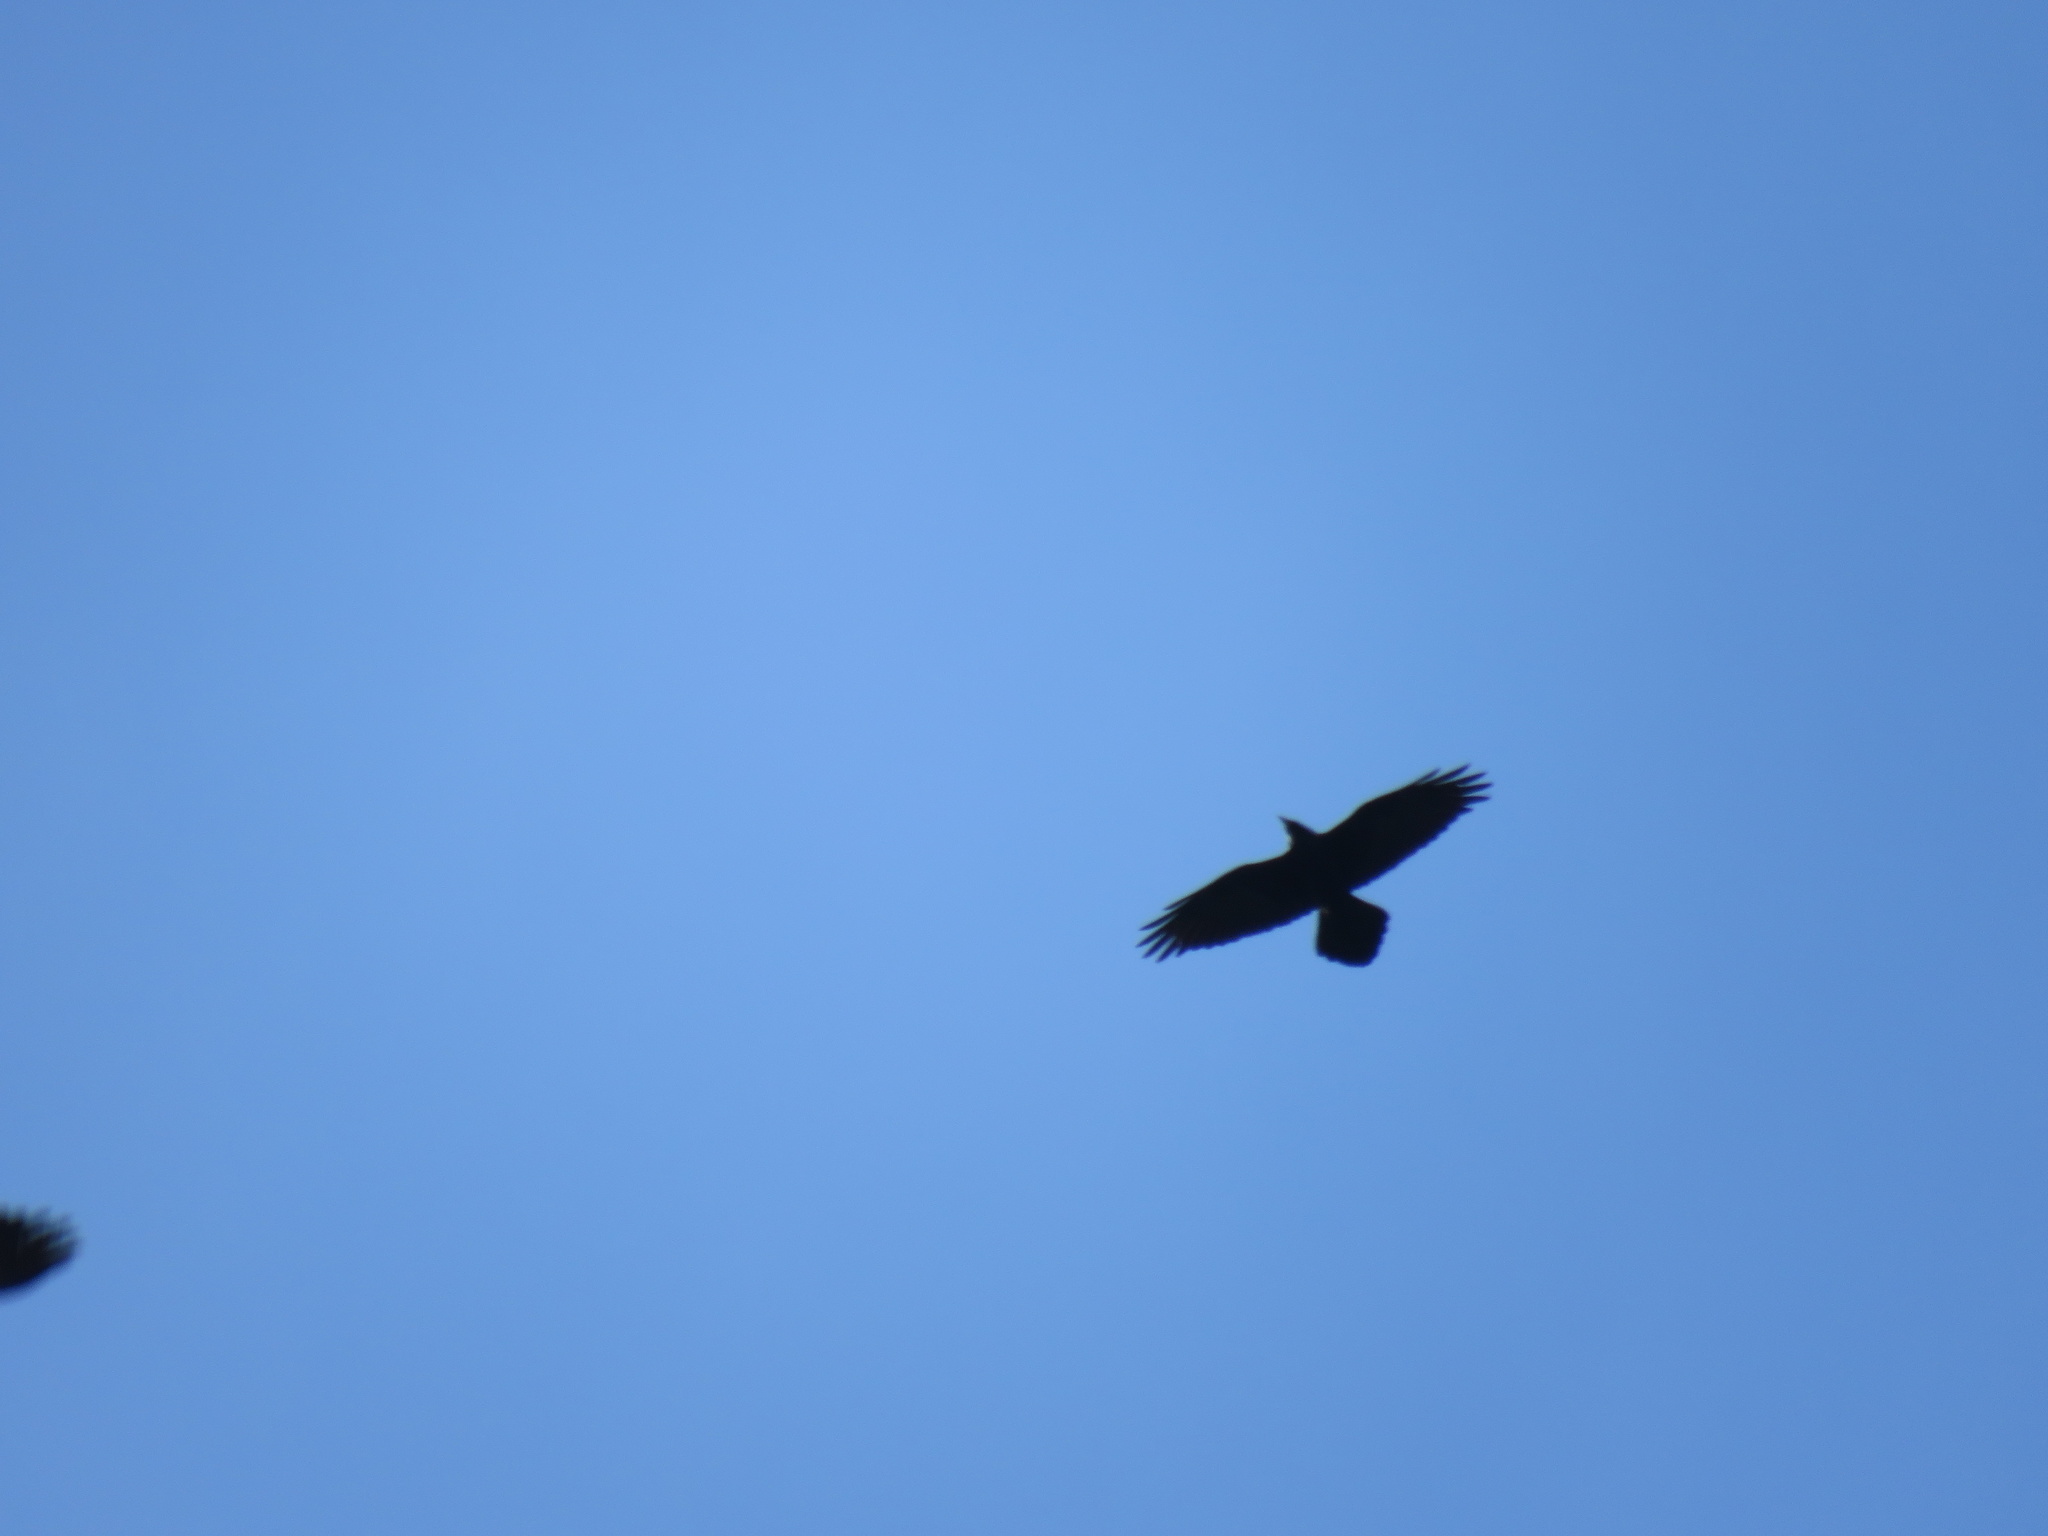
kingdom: Animalia
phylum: Chordata
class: Aves
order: Passeriformes
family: Corvidae
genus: Corvus
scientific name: Corvus corax
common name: Common raven
